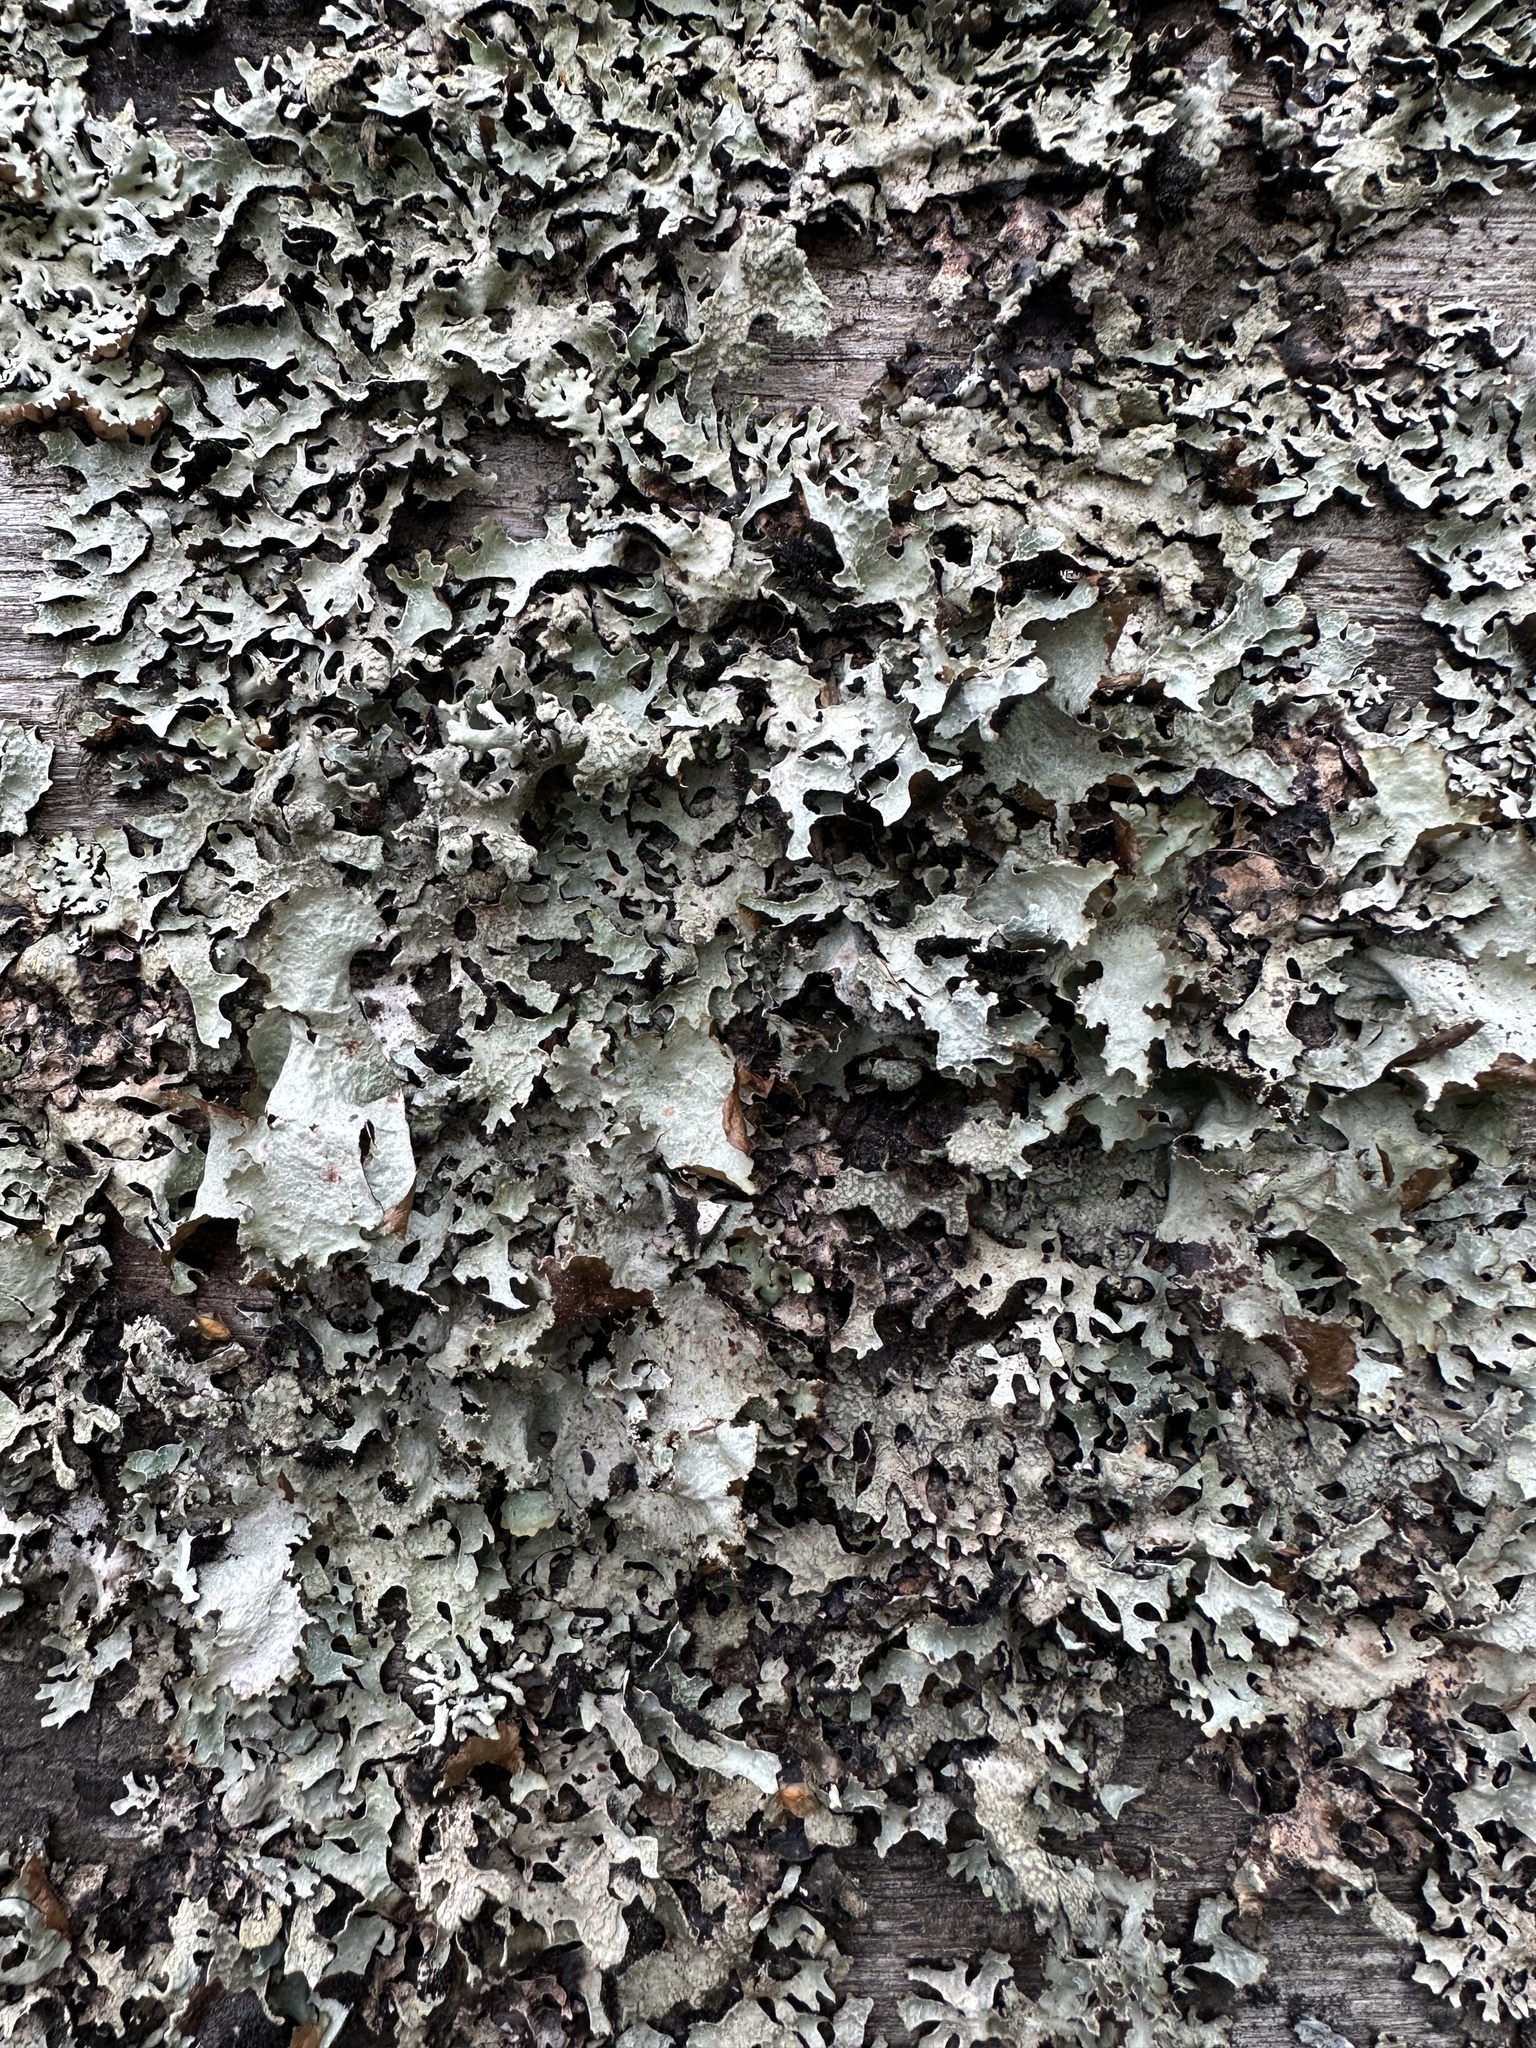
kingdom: Fungi
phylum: Ascomycota
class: Lecanoromycetes
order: Lecanorales
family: Parmeliaceae
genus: Platismatia
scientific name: Platismatia glauca
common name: Varied rag lichen
